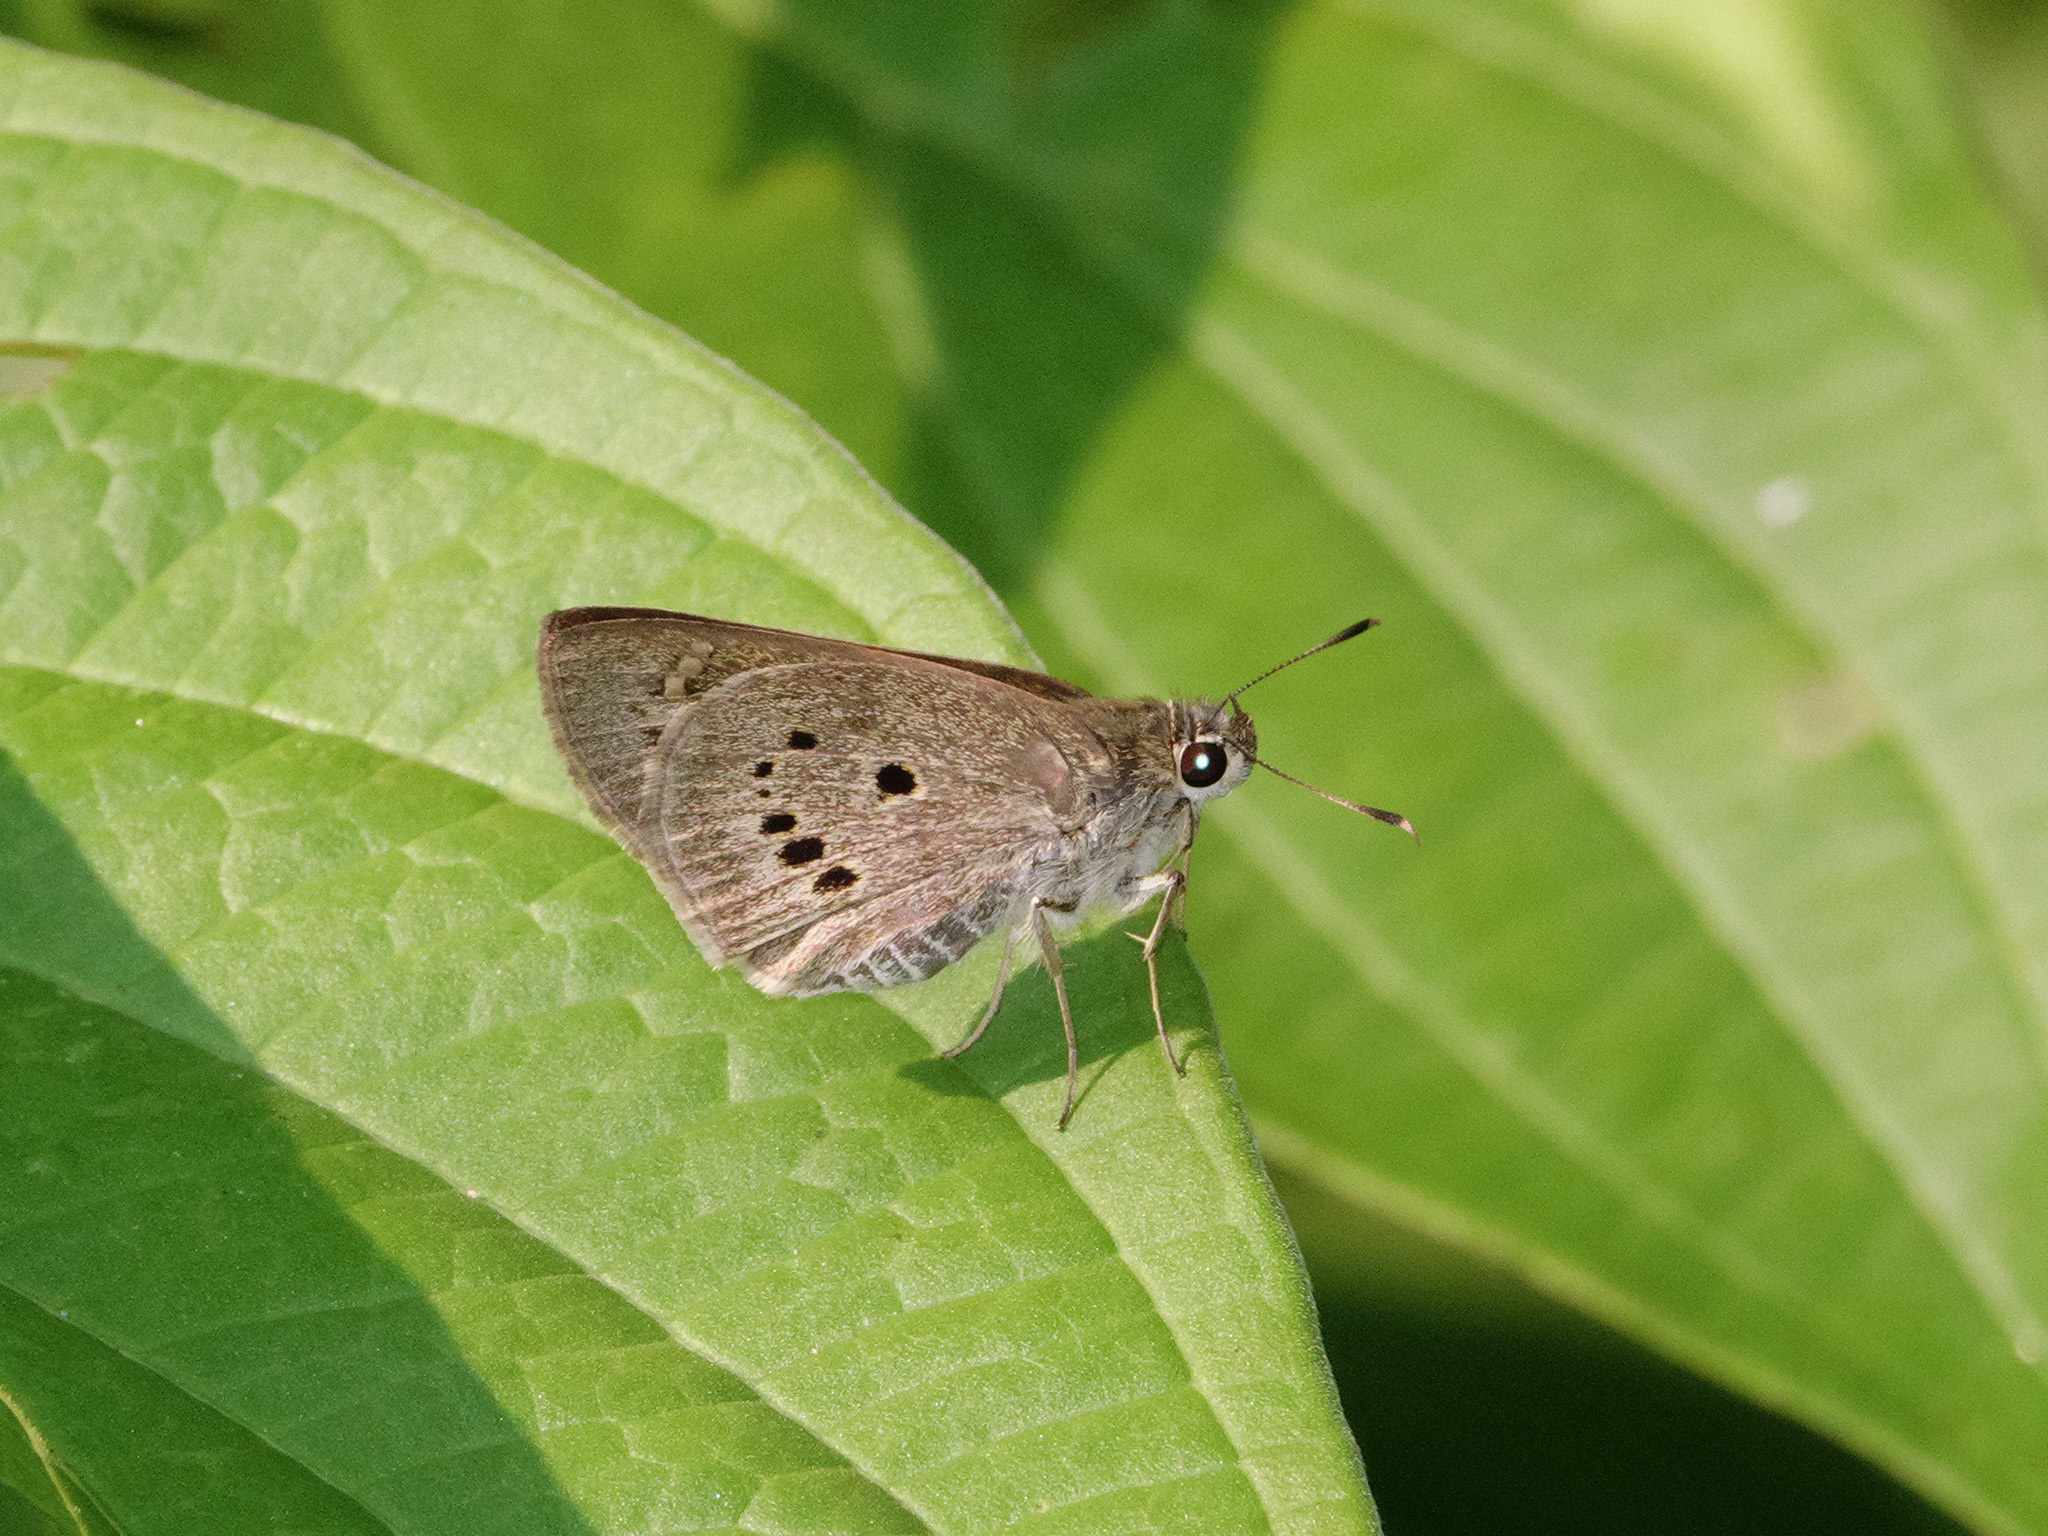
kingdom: Animalia
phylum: Arthropoda
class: Insecta
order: Lepidoptera
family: Hesperiidae
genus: Suastus
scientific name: Suastus gremius
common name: Indian palm bob
